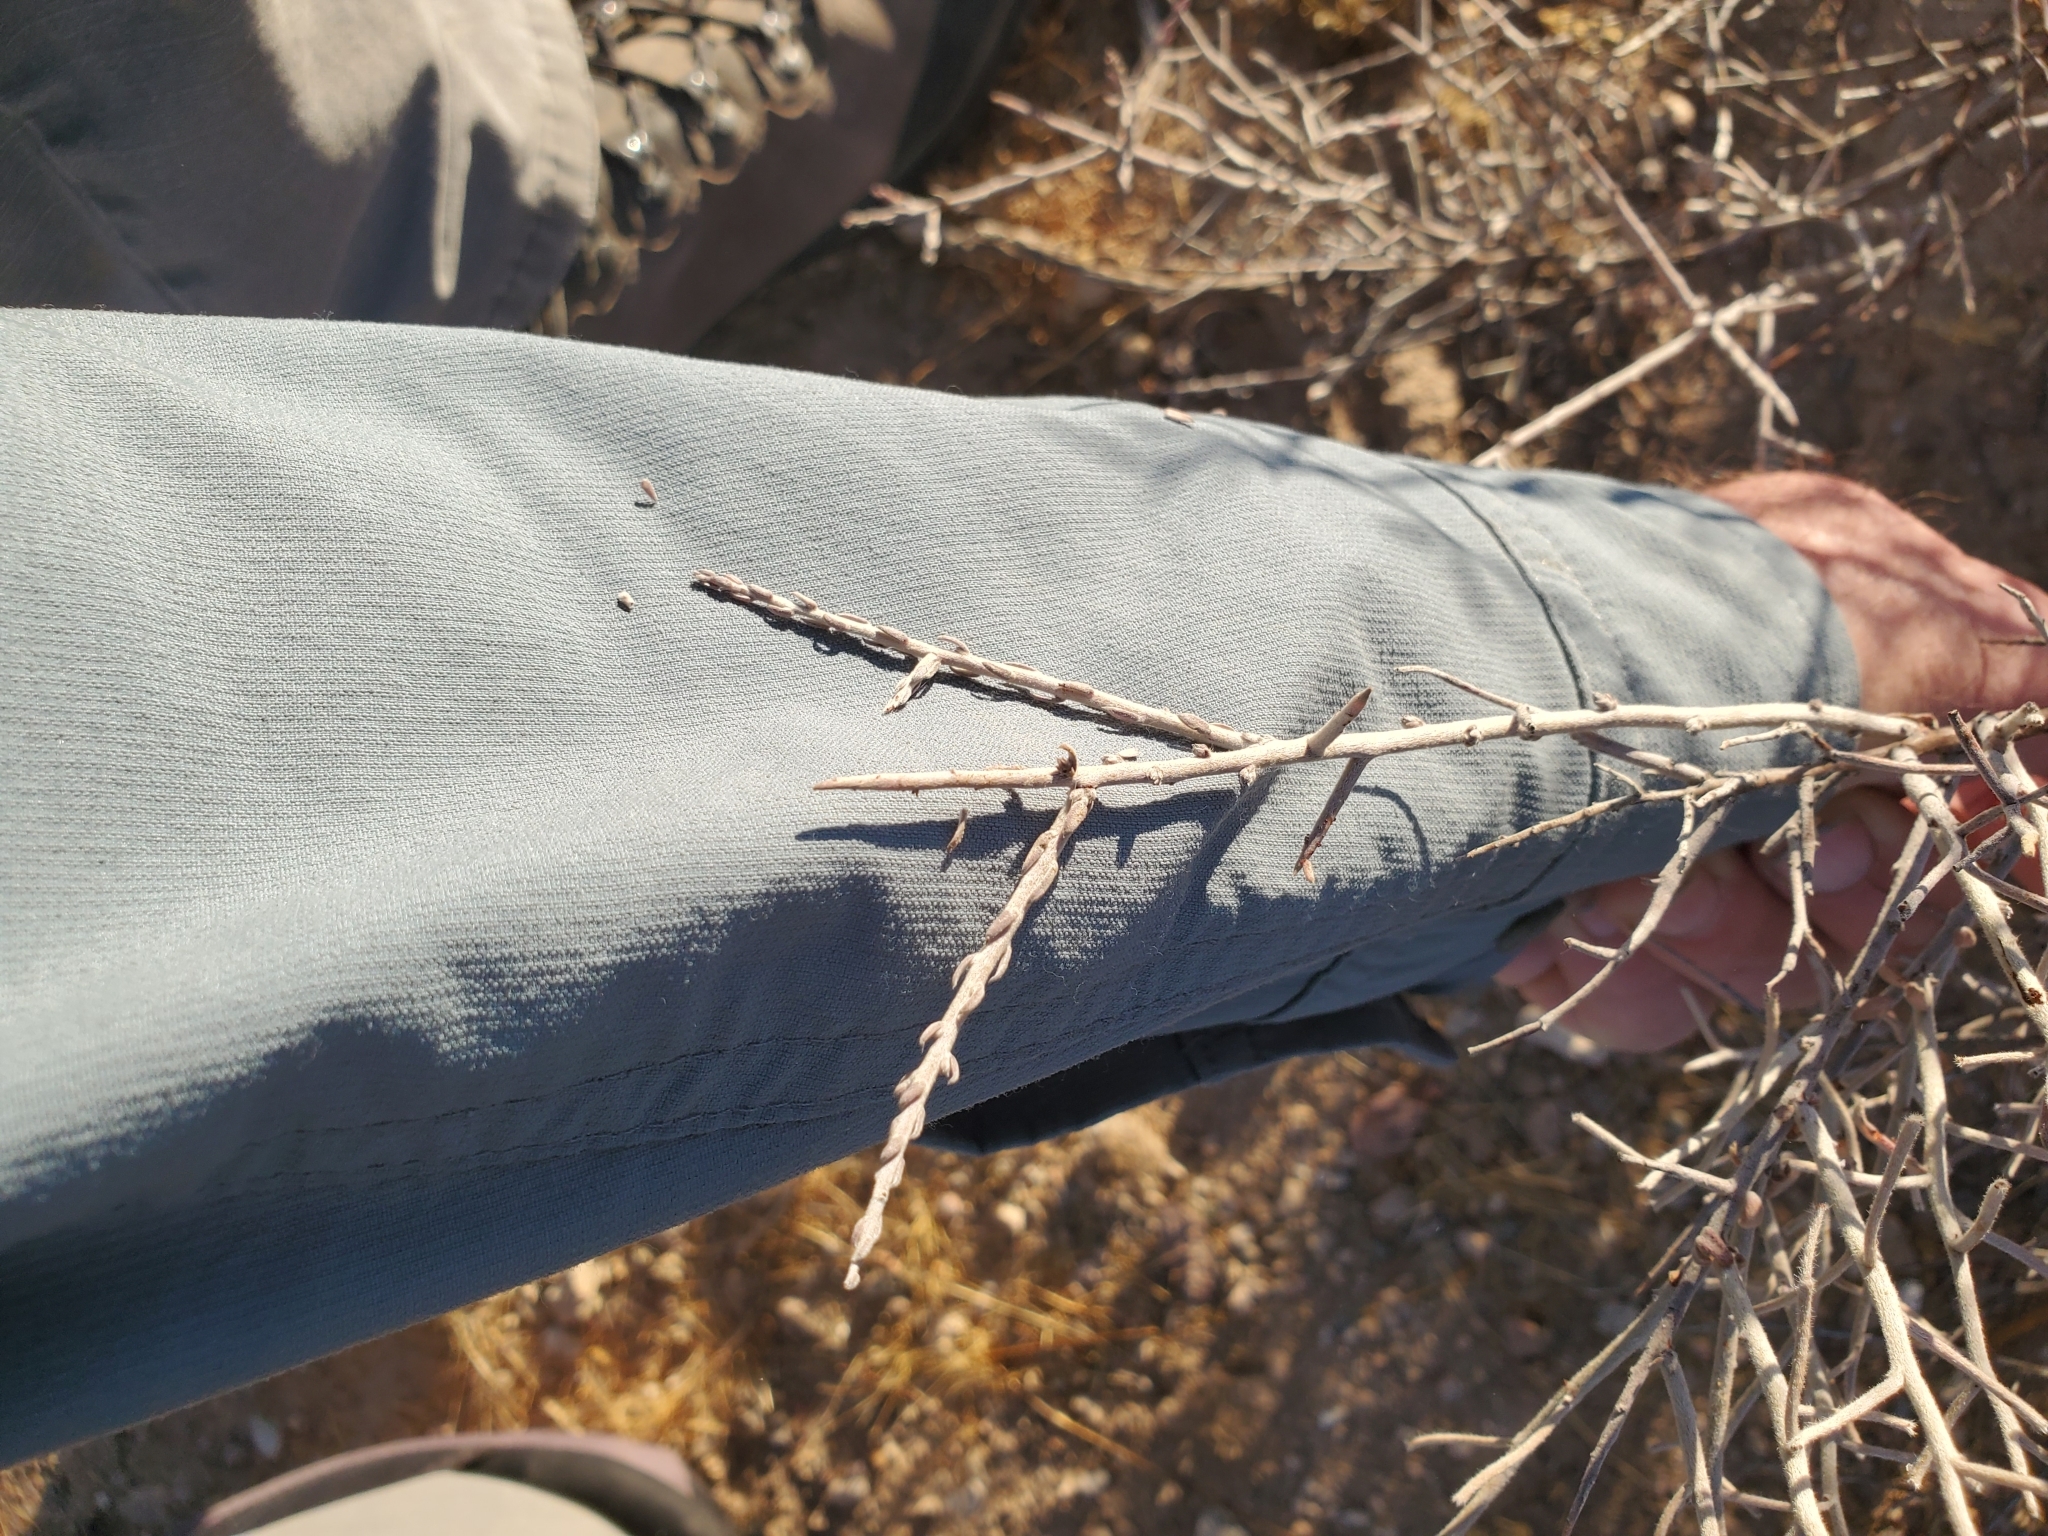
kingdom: Plantae
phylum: Tracheophyta
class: Magnoliopsida
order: Zygophyllales
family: Krameriaceae
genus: Krameria
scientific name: Krameria bicolor
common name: White ratany
